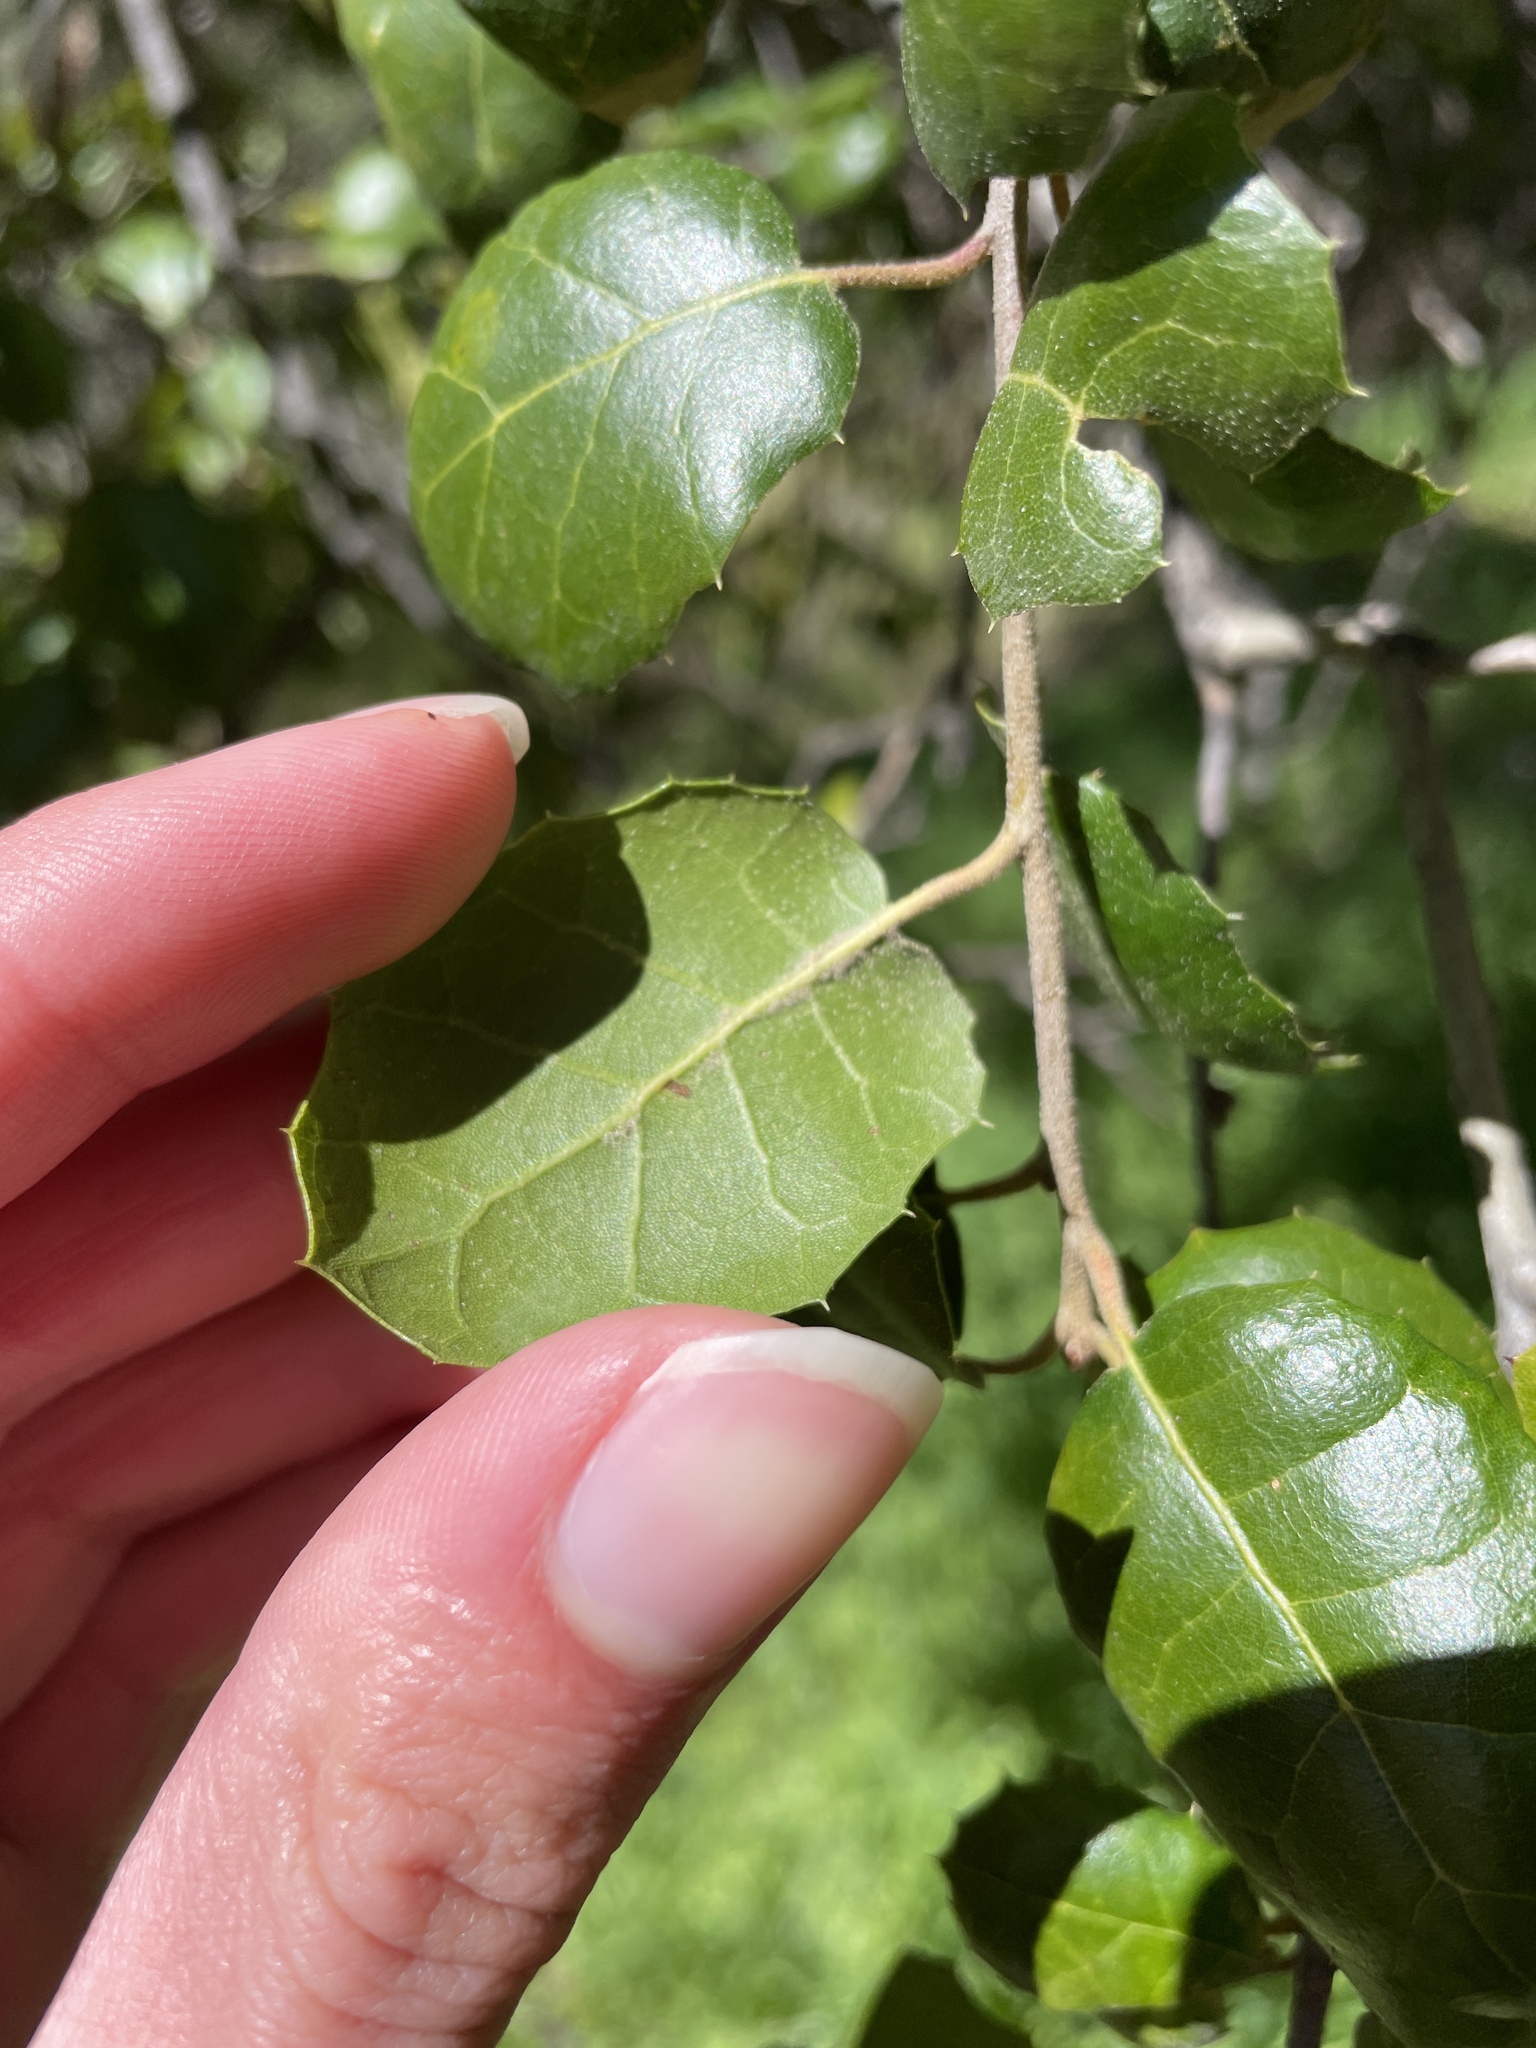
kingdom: Plantae
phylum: Tracheophyta
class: Magnoliopsida
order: Fagales
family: Fagaceae
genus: Quercus
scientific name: Quercus agrifolia
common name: California live oak
